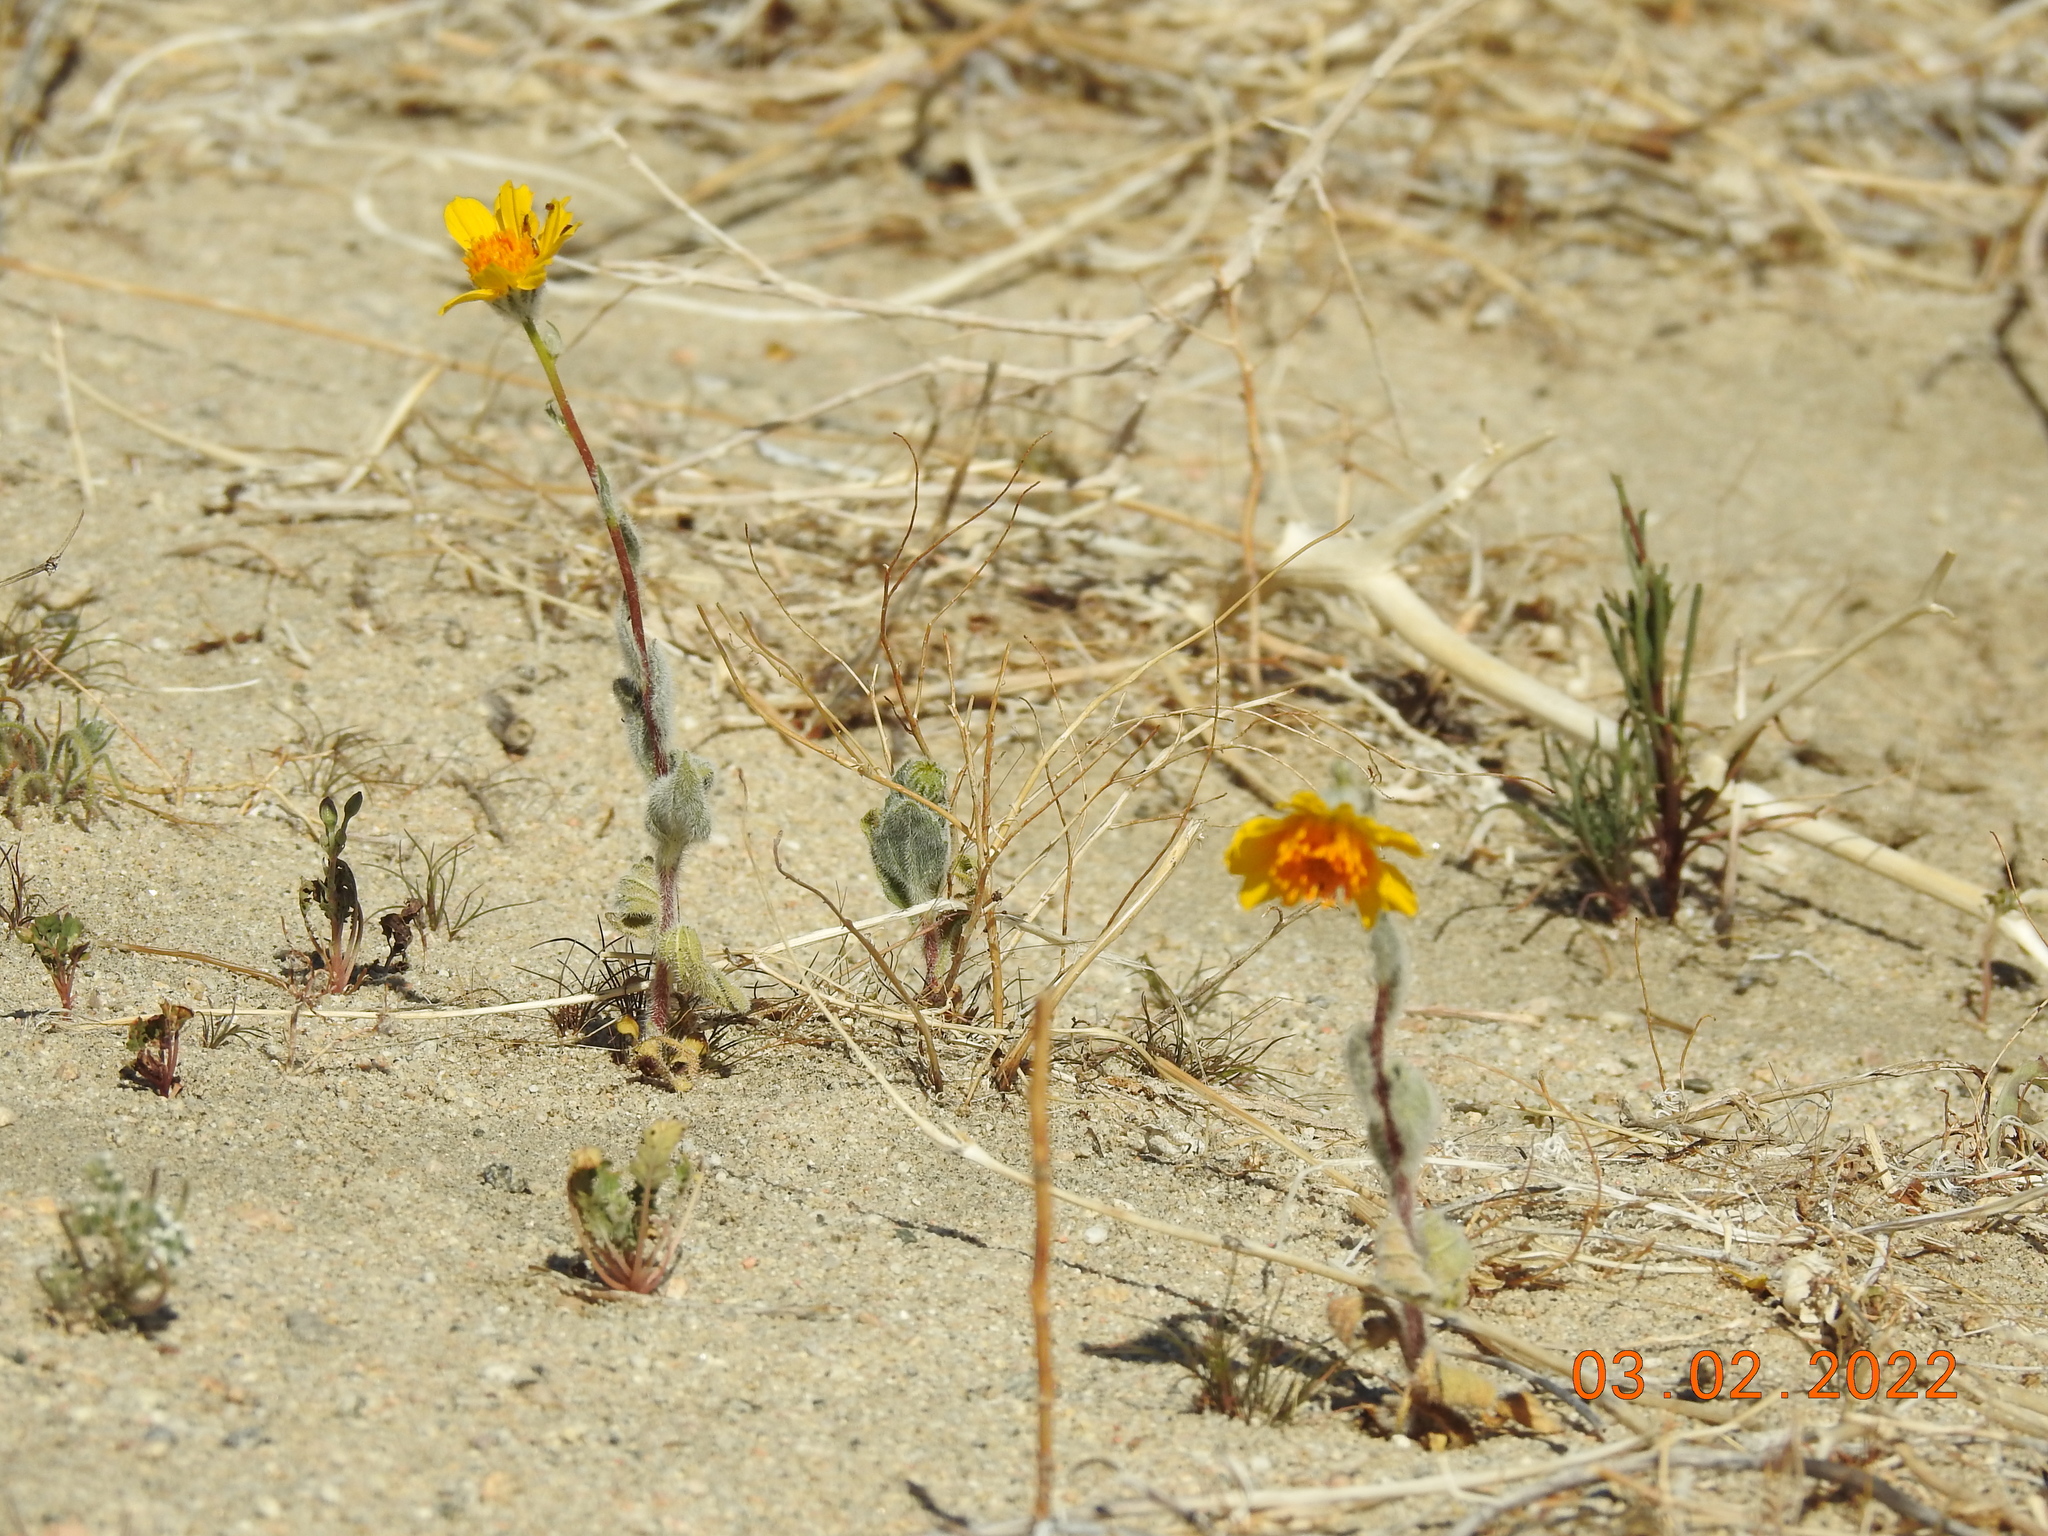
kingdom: Plantae
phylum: Tracheophyta
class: Magnoliopsida
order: Asterales
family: Asteraceae
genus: Geraea
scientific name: Geraea canescens
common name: Desert-gold
